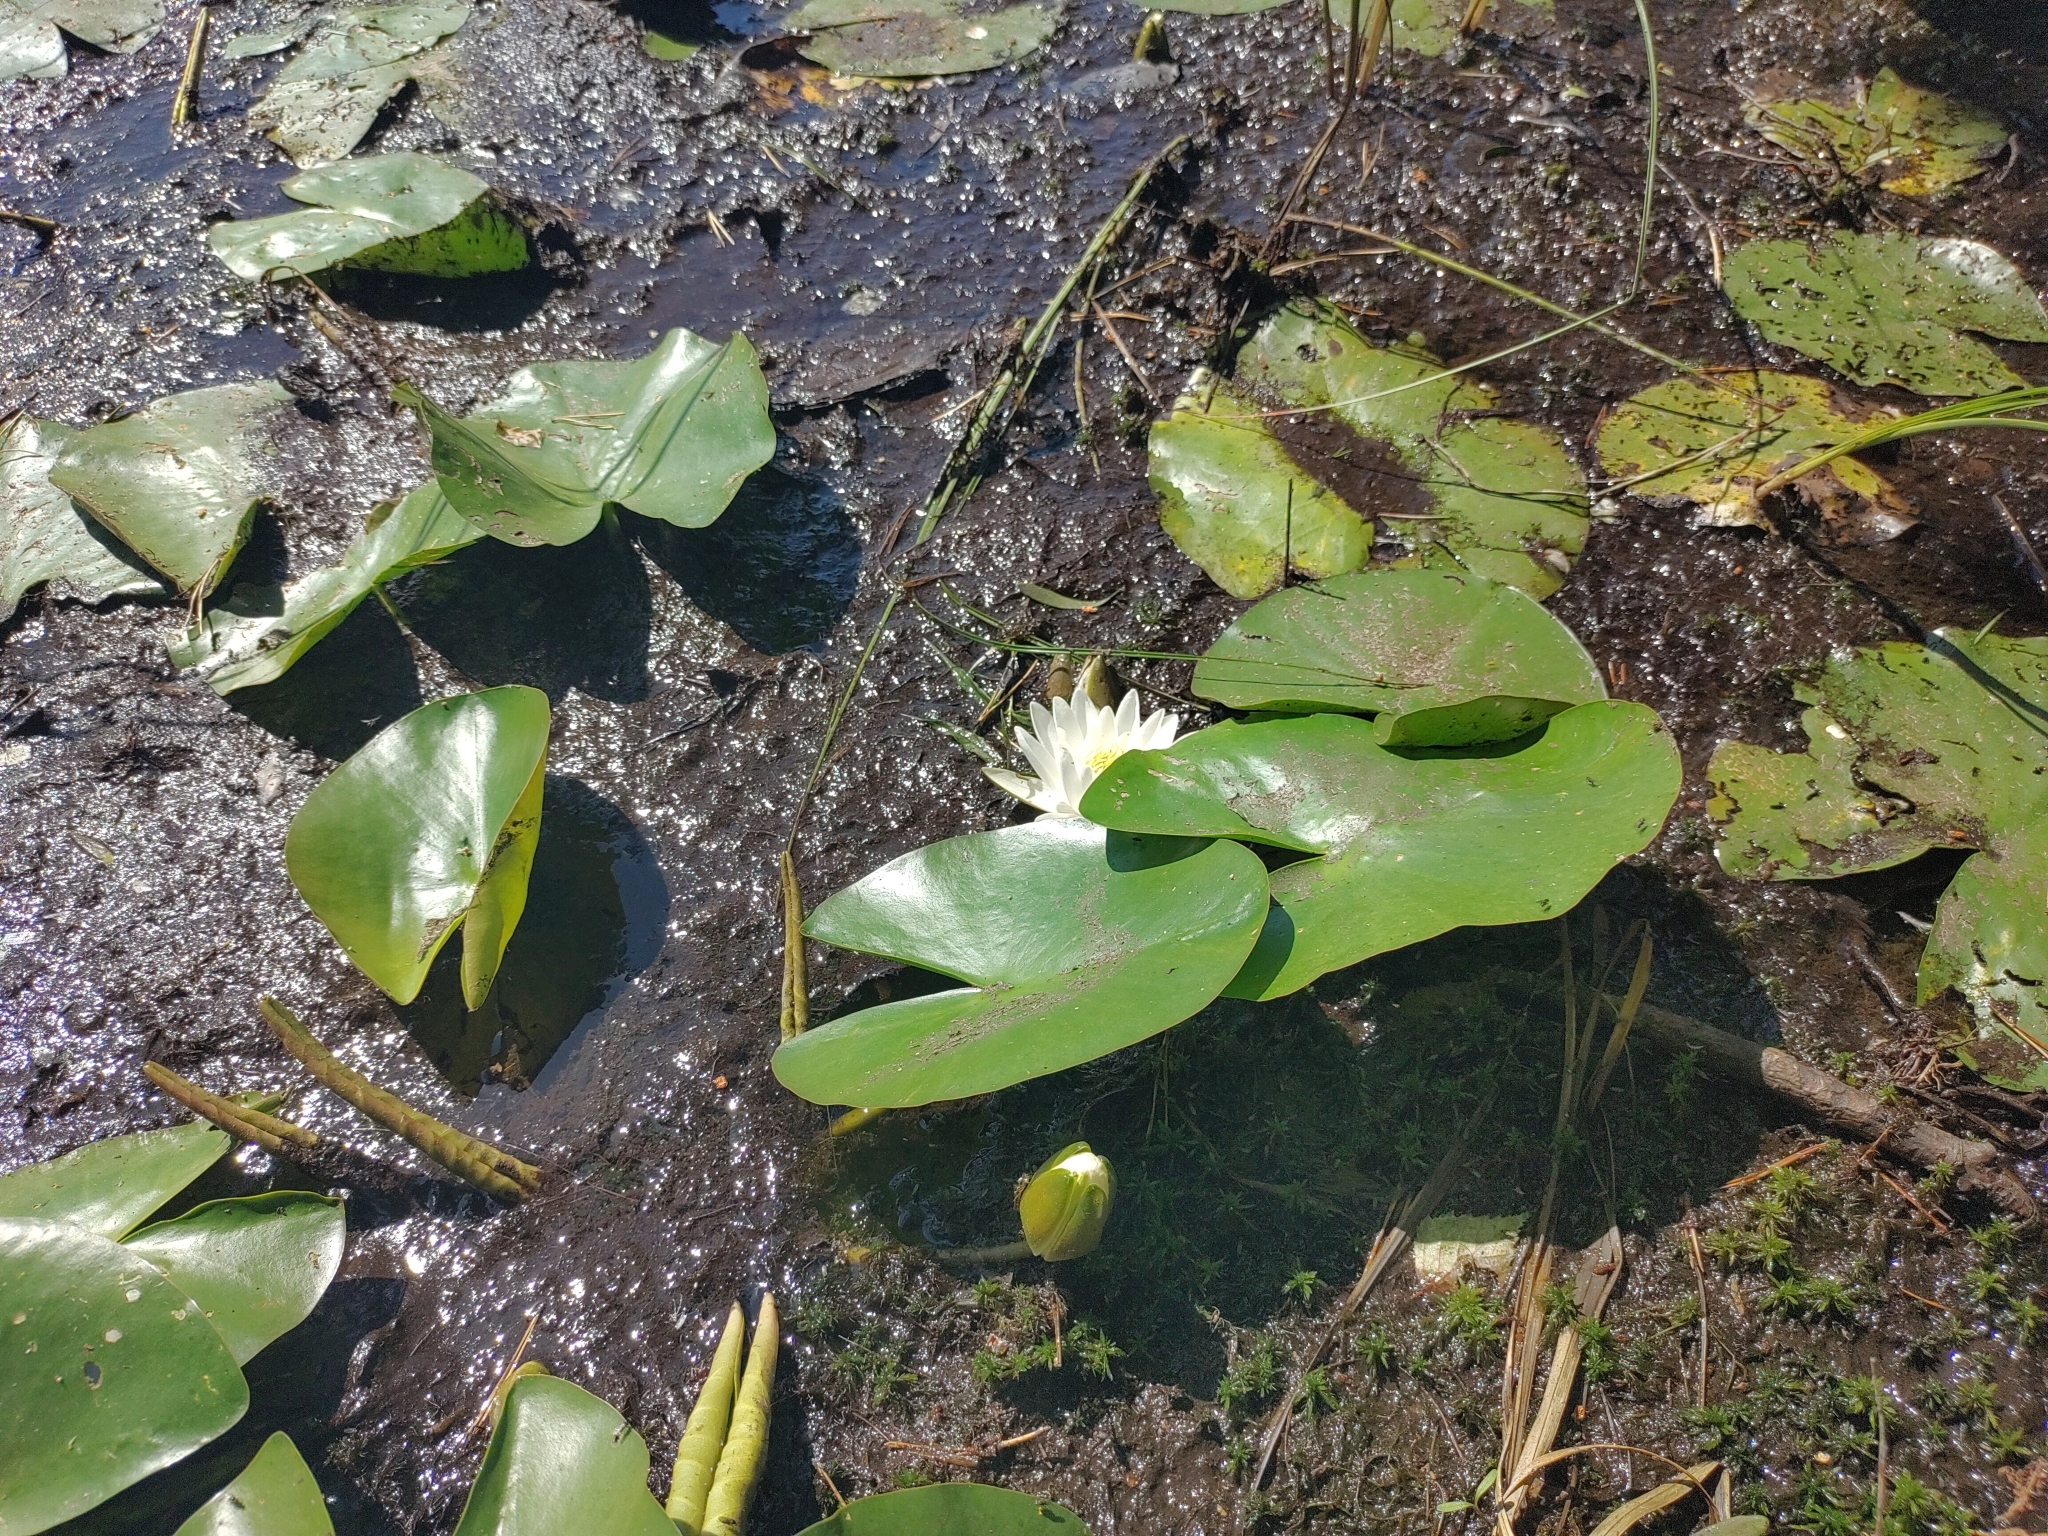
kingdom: Plantae
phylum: Tracheophyta
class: Magnoliopsida
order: Nymphaeales
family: Nymphaeaceae
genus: Nymphaea
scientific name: Nymphaea alba
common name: White water-lily
